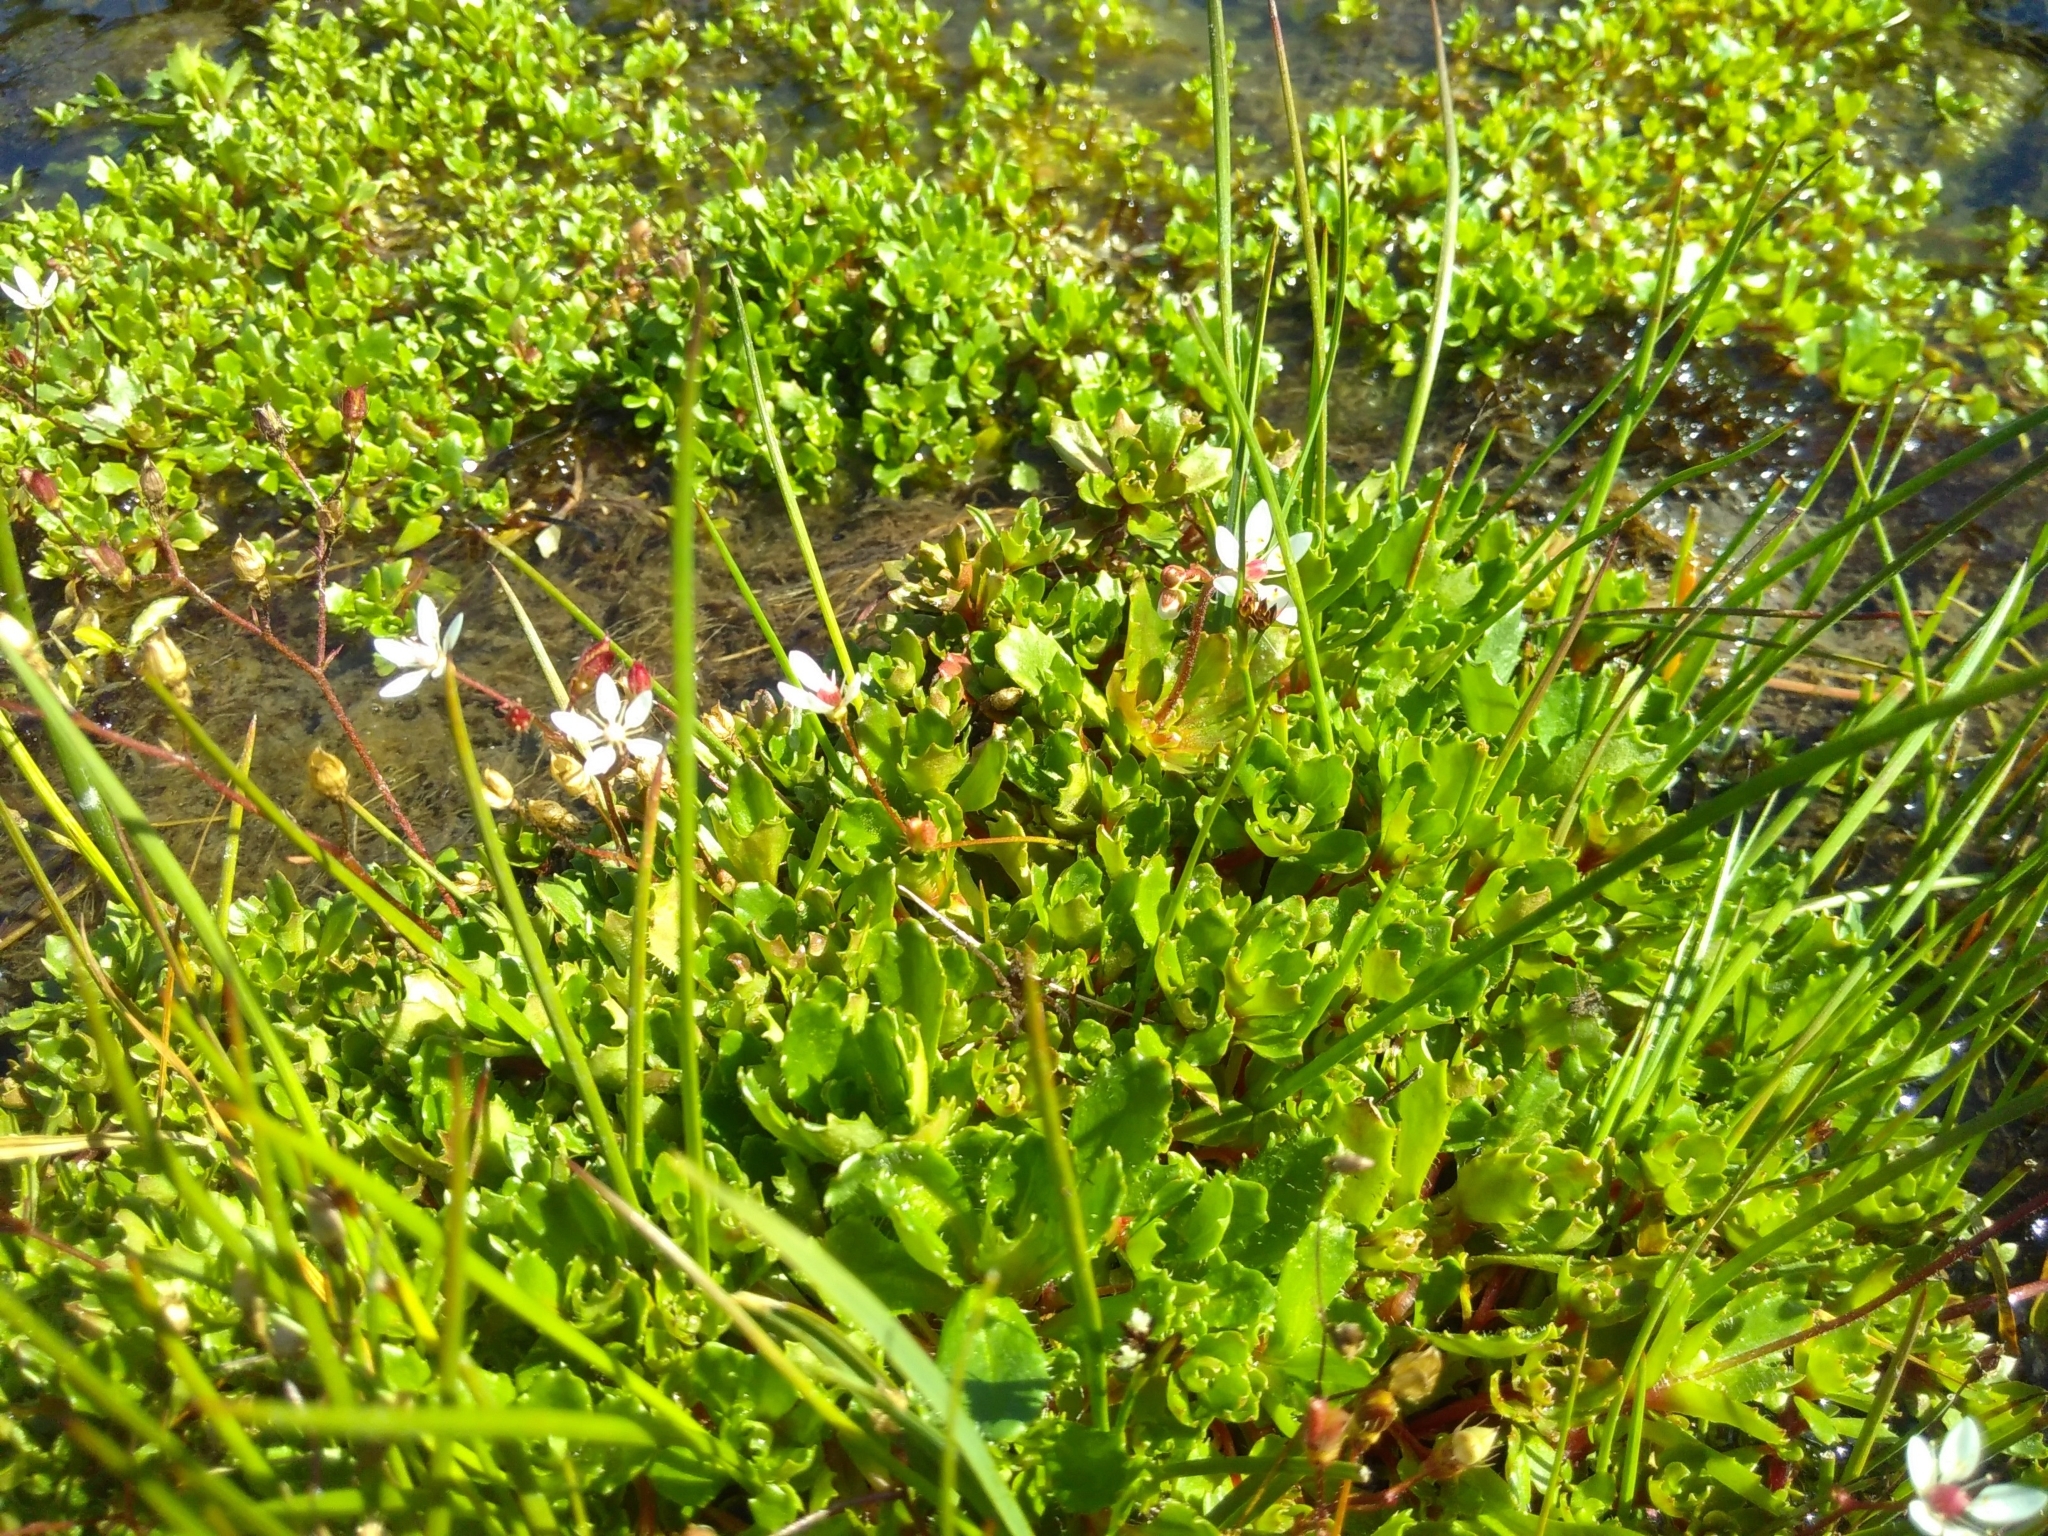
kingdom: Plantae
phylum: Tracheophyta
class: Magnoliopsida
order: Saxifragales
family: Saxifragaceae
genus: Micranthes
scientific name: Micranthes stellaris
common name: Starry saxifrage
